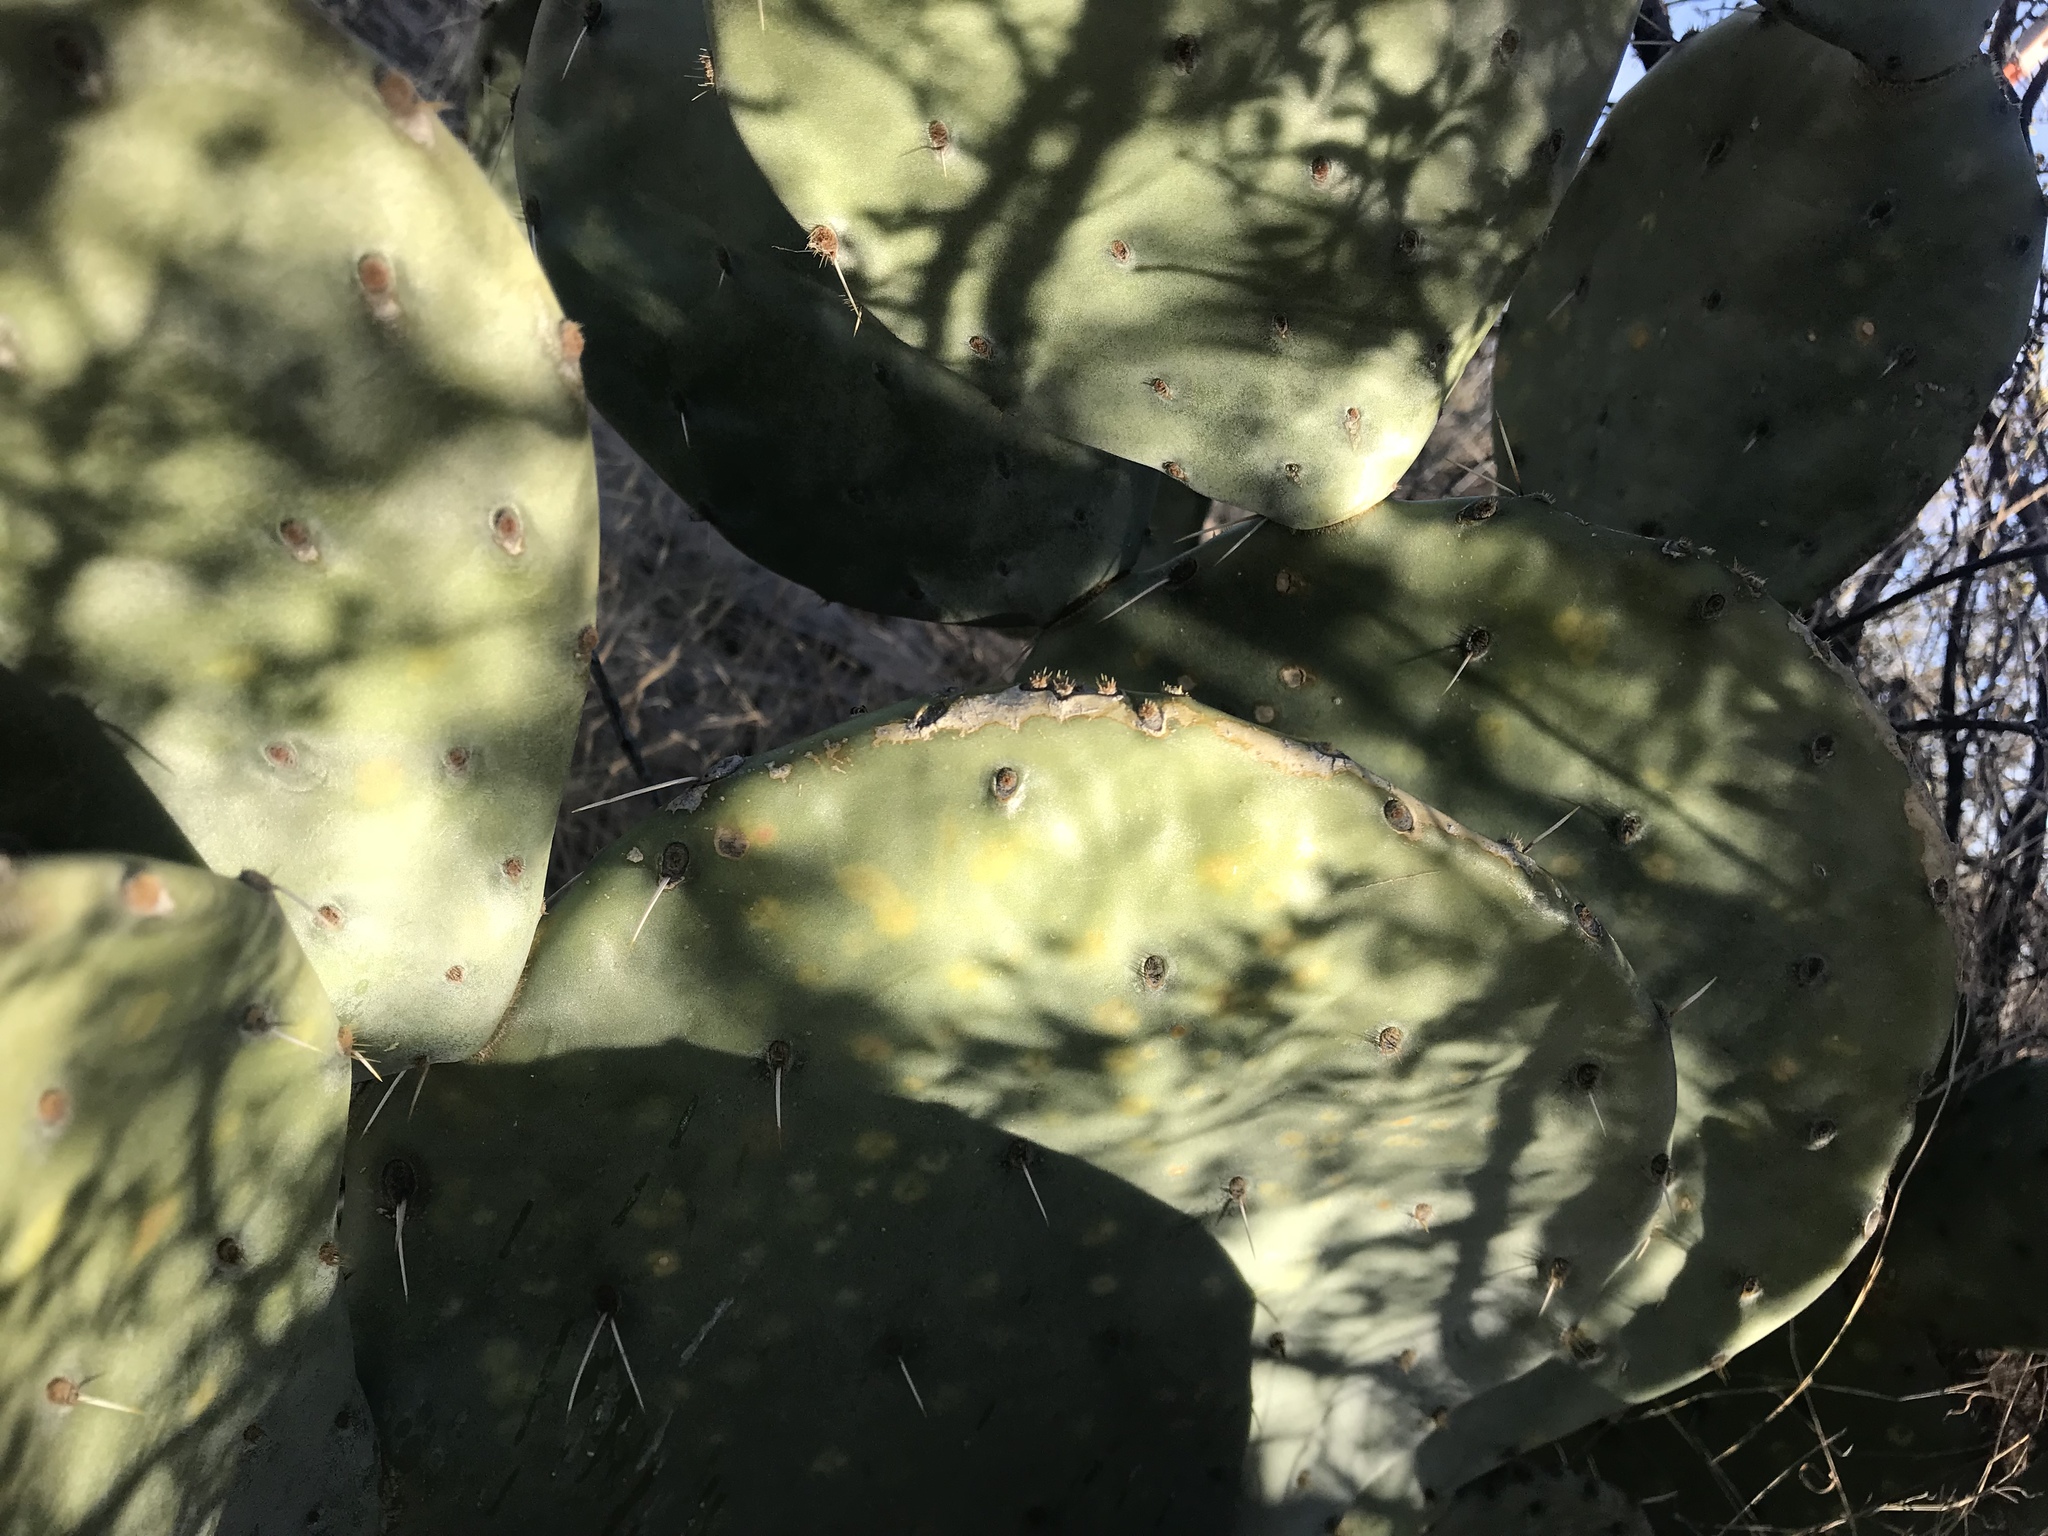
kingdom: Plantae
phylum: Tracheophyta
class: Magnoliopsida
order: Caryophyllales
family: Cactaceae
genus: Opuntia
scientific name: Opuntia engelmannii
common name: Cactus-apple
